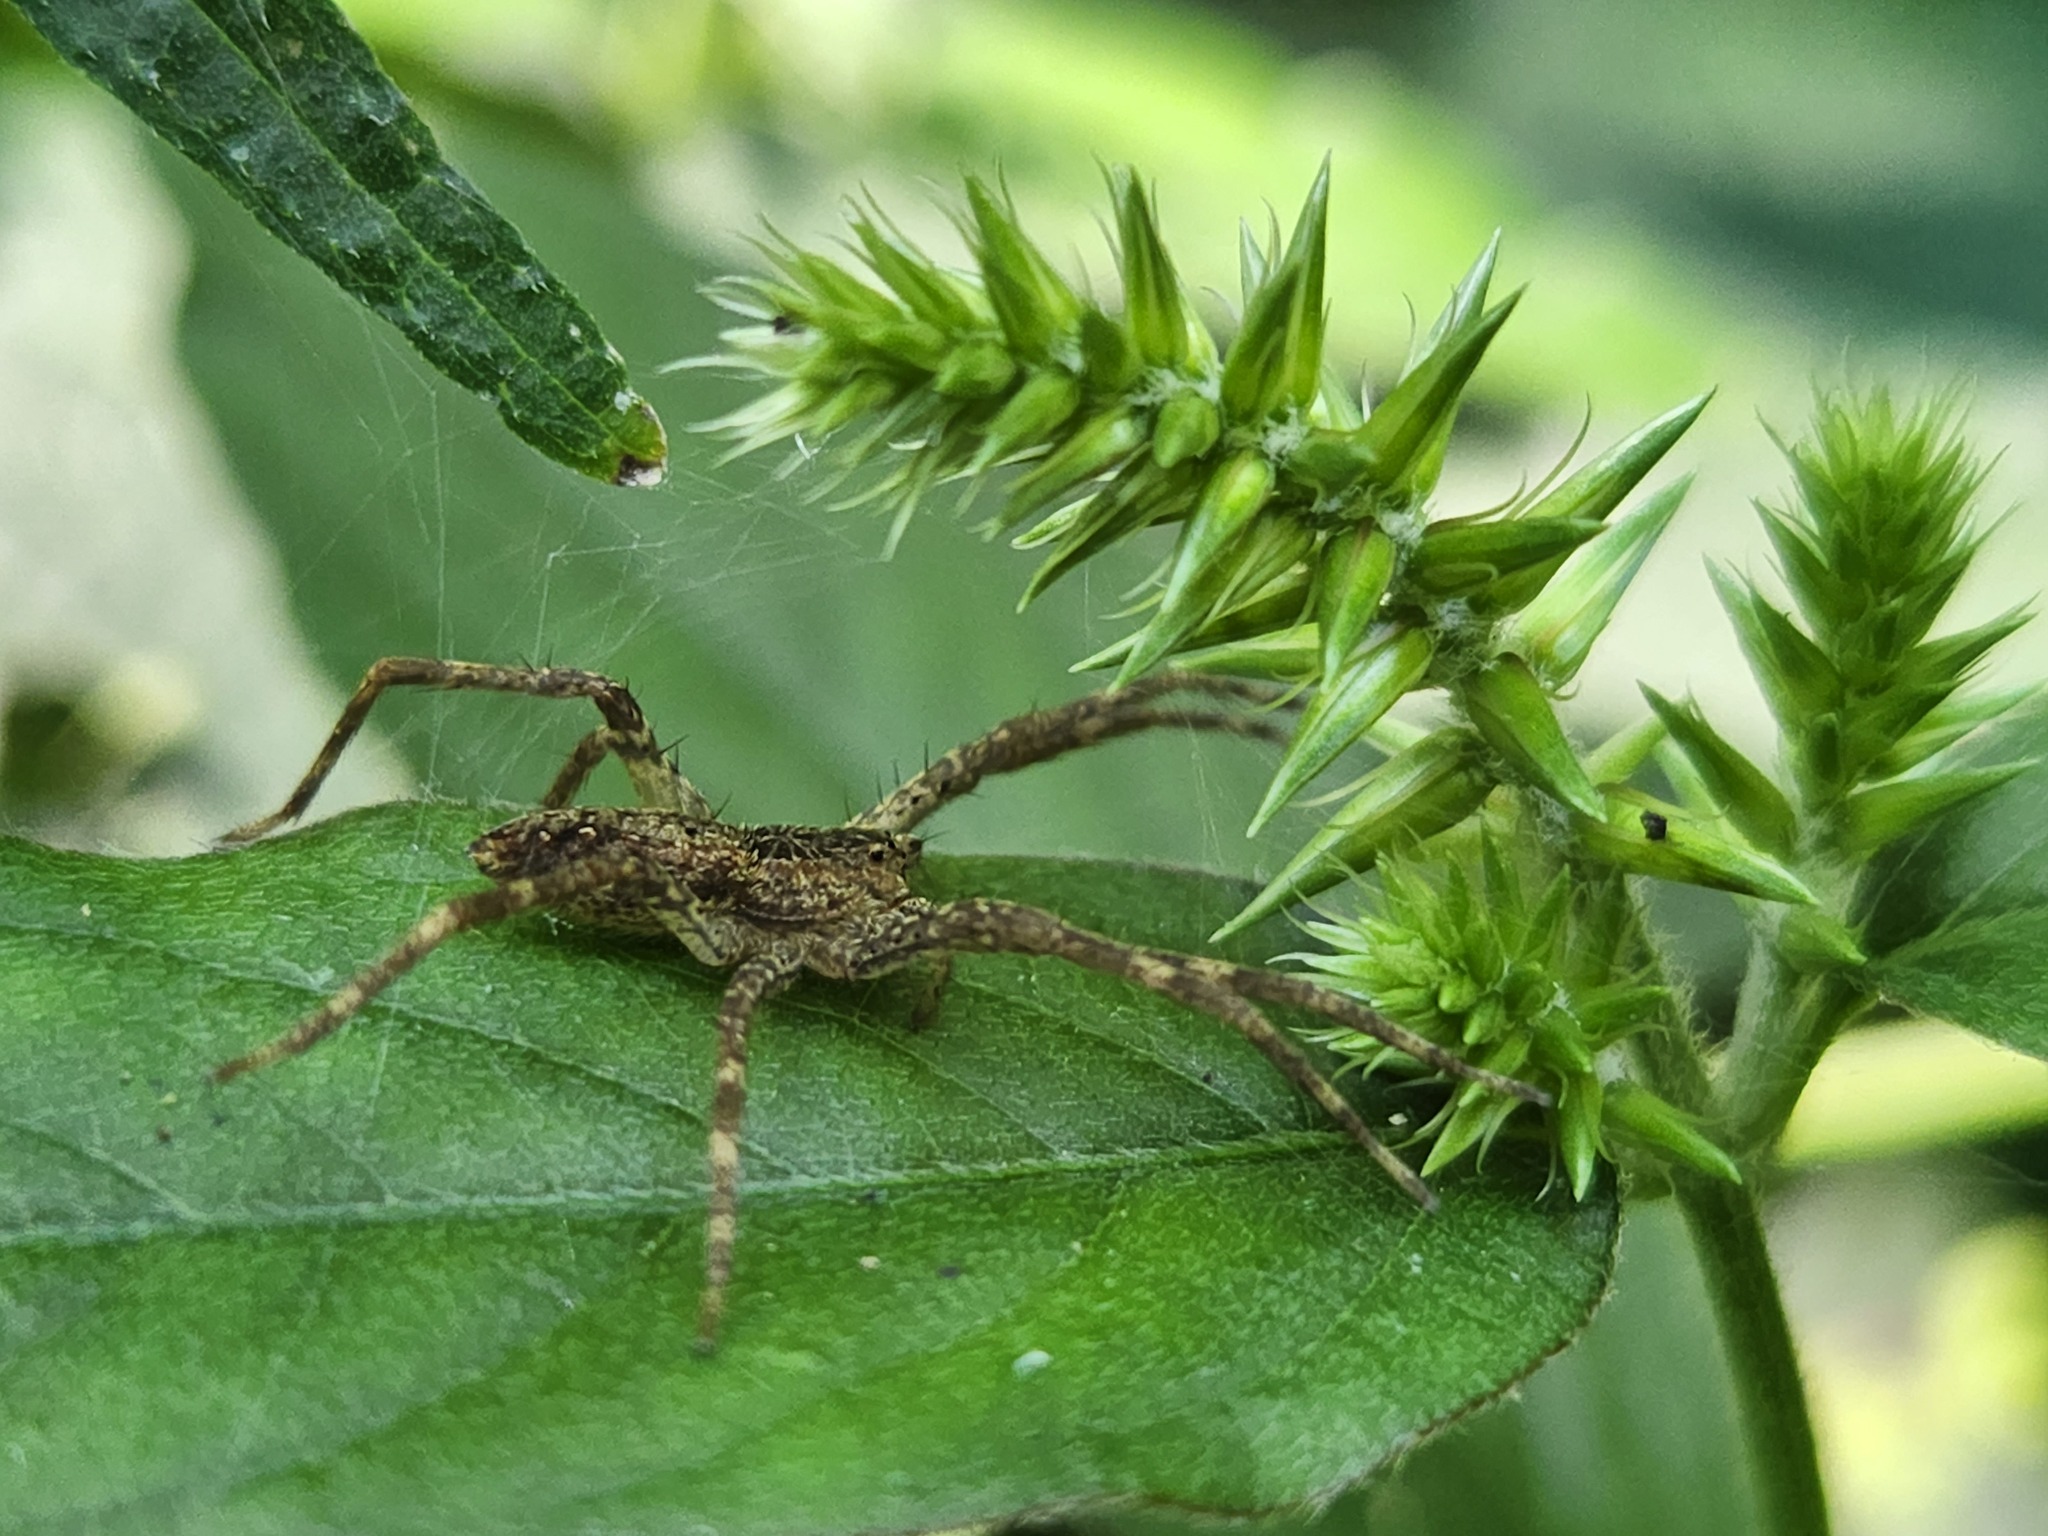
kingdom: Animalia
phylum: Arthropoda
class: Arachnida
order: Araneae
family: Pisauridae
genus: Pisaurina
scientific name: Pisaurina mira
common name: American nursery web spider
